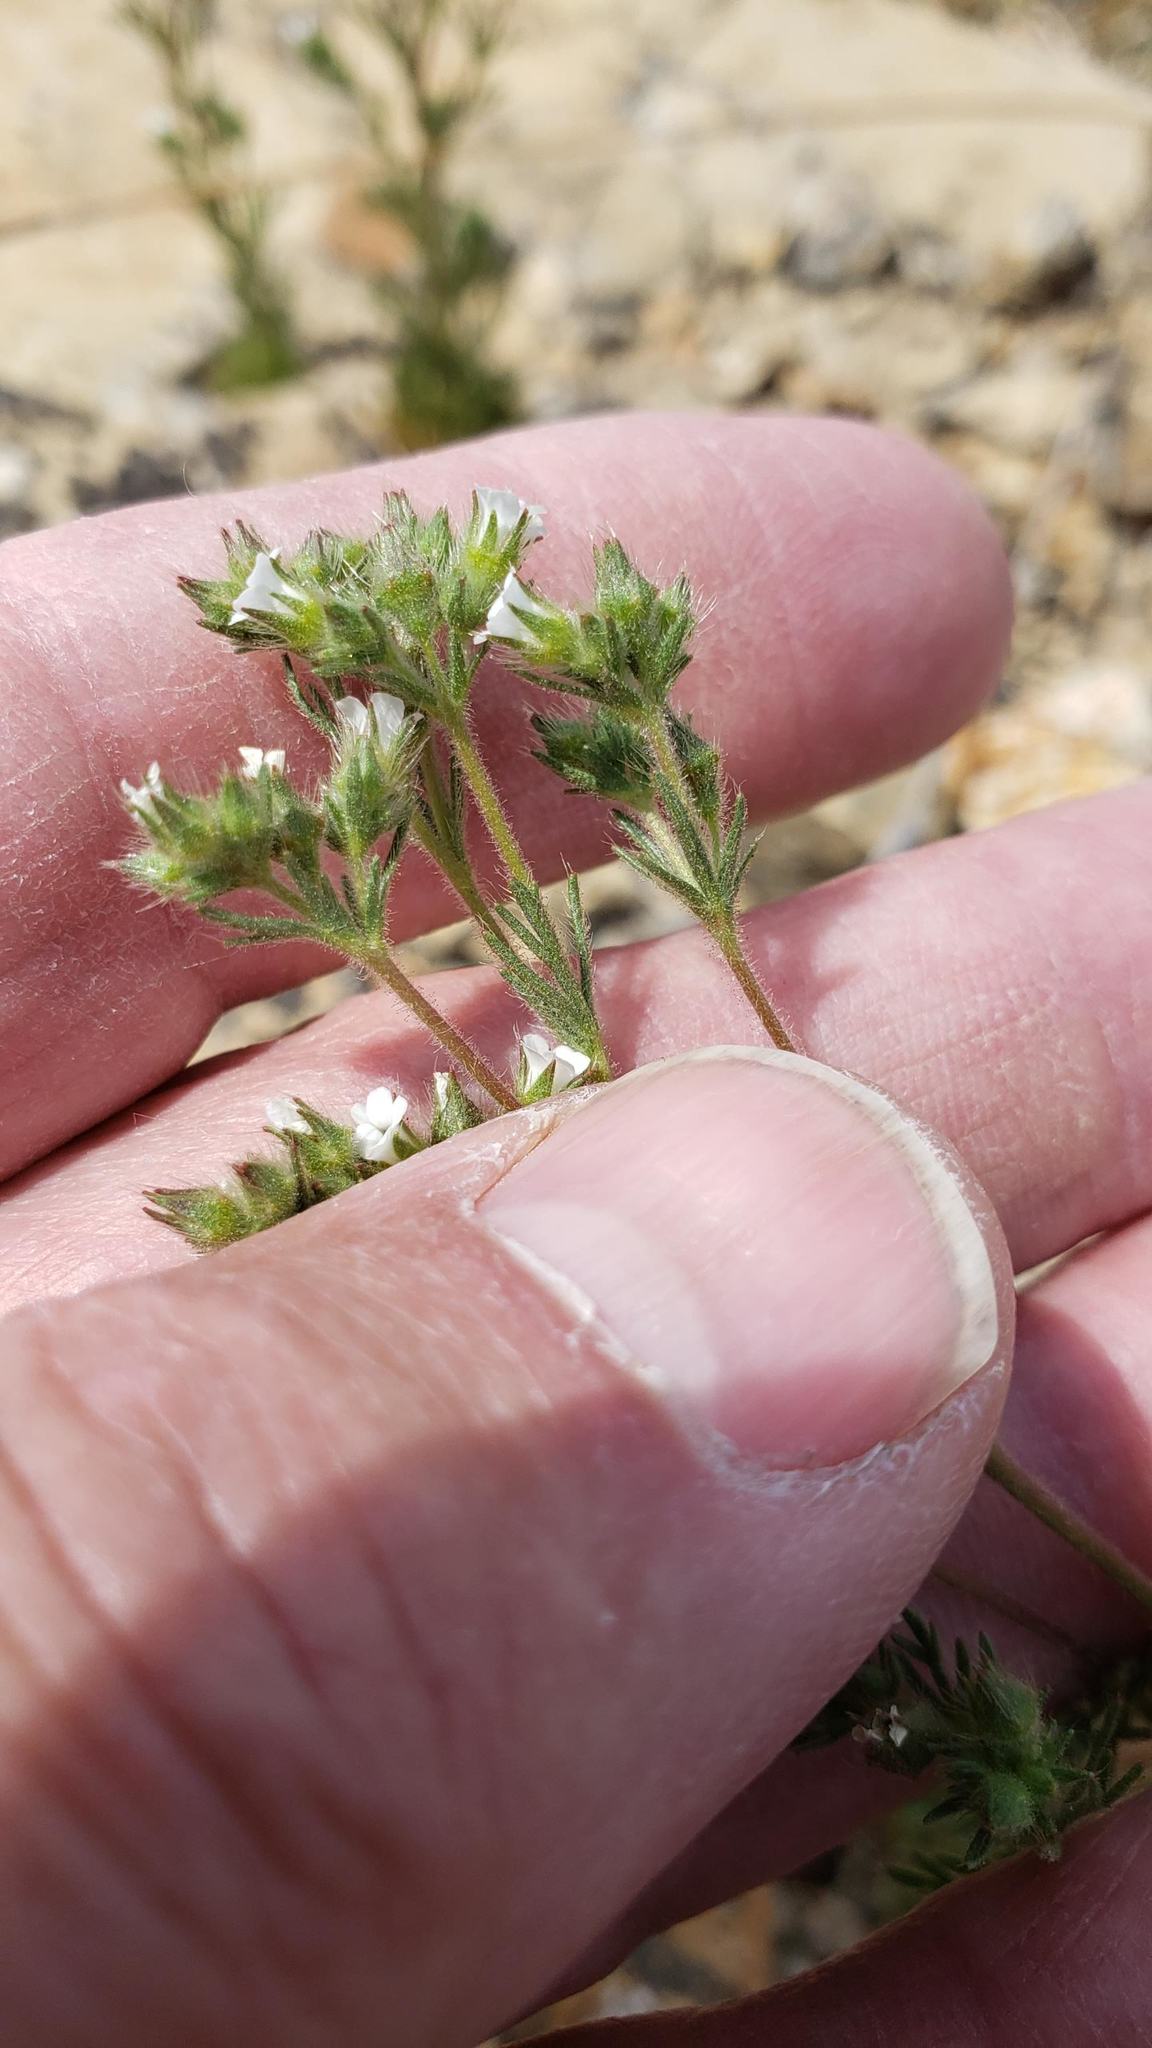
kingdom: Plantae
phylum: Tracheophyta
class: Magnoliopsida
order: Rosales
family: Rosaceae
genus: Chamaerhodos
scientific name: Chamaerhodos erecta
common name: American chamaerhodos
